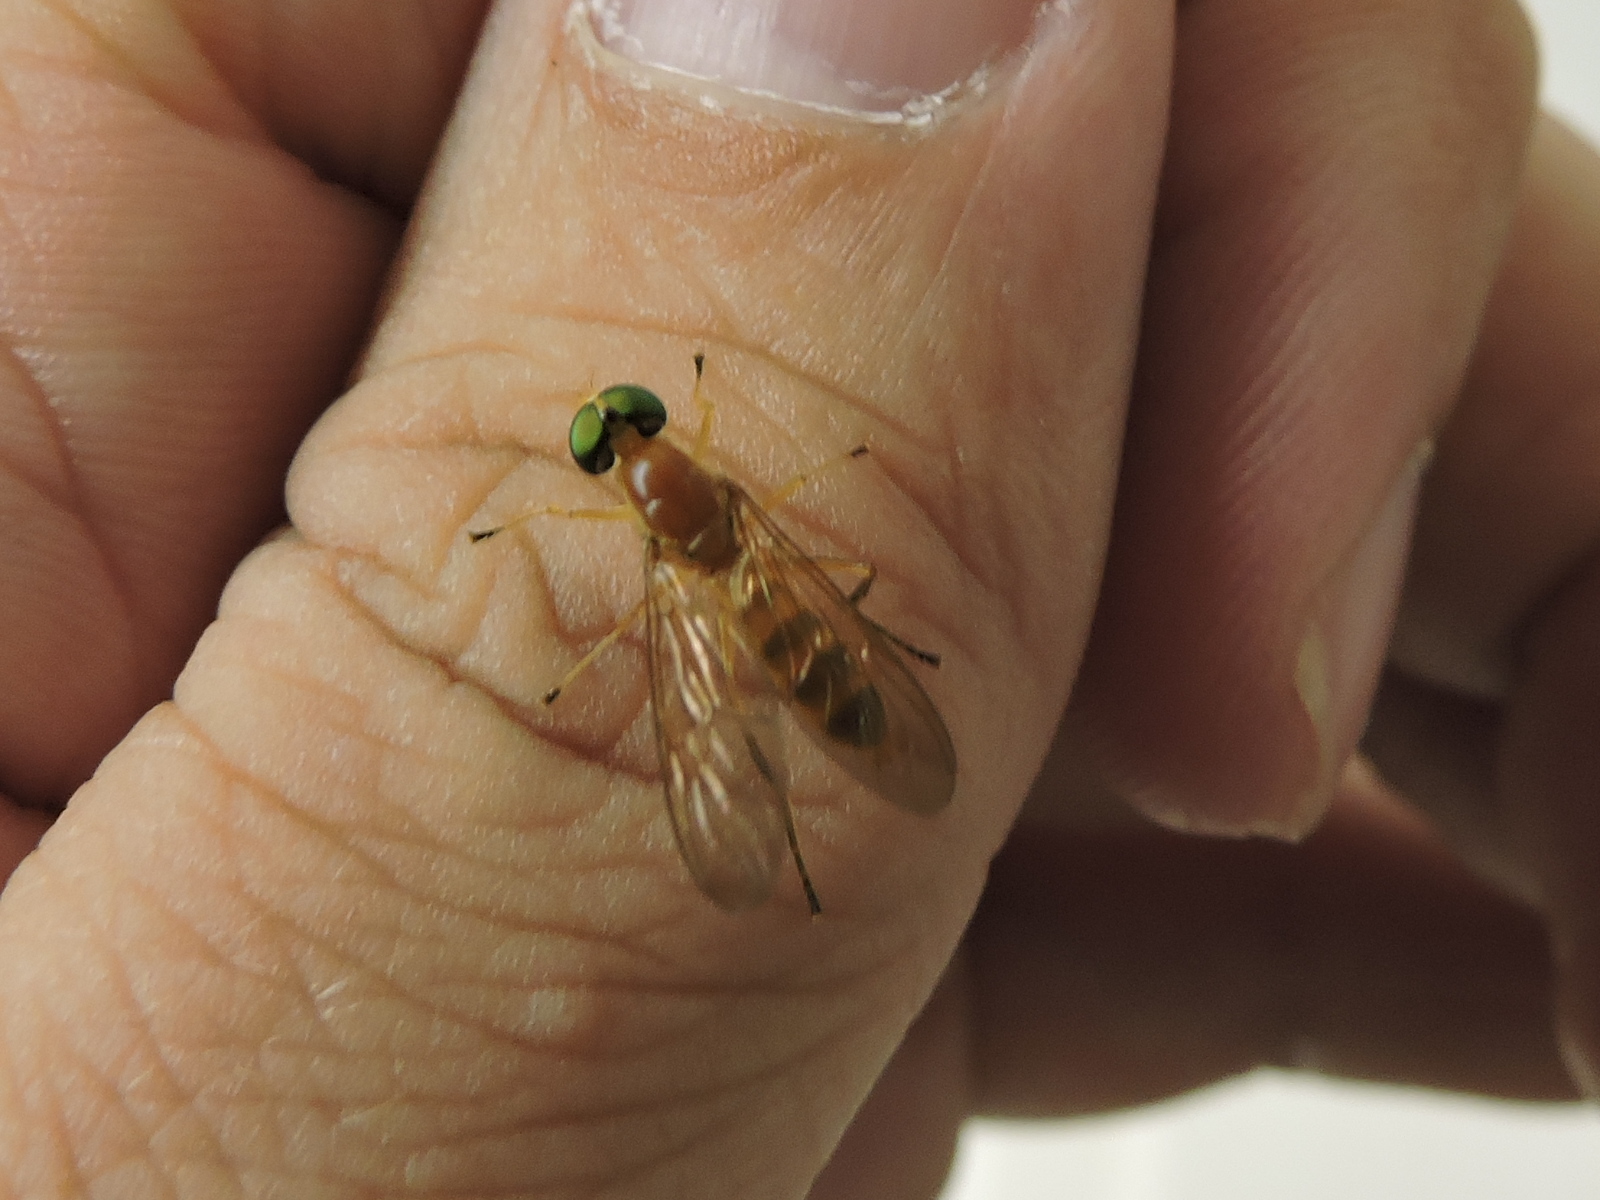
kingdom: Animalia
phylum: Arthropoda
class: Insecta
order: Diptera
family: Stratiomyidae
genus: Ptecticus
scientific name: Ptecticus trivittatus
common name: Compost fly
